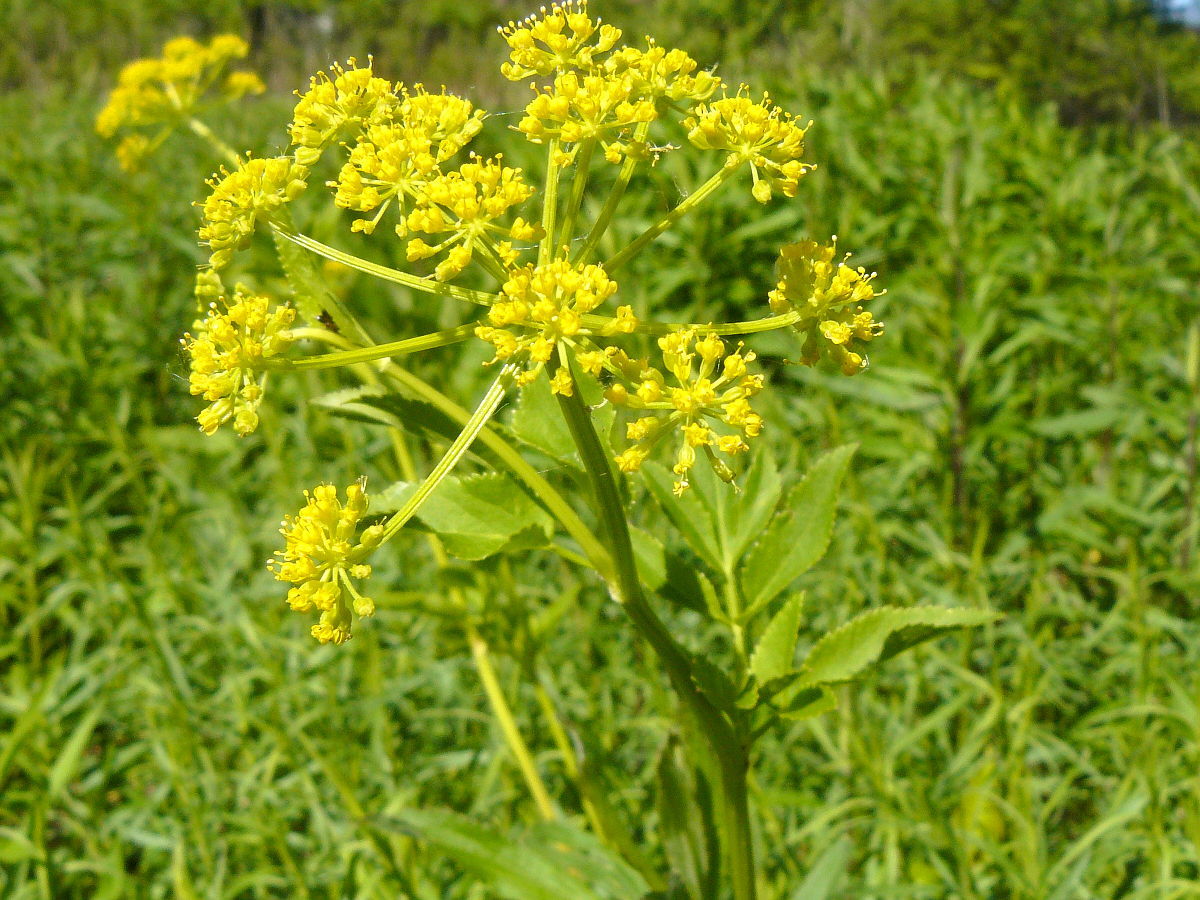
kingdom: Plantae
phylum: Tracheophyta
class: Magnoliopsida
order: Apiales
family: Apiaceae
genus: Zizia
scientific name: Zizia aurea
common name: Golden alexanders
